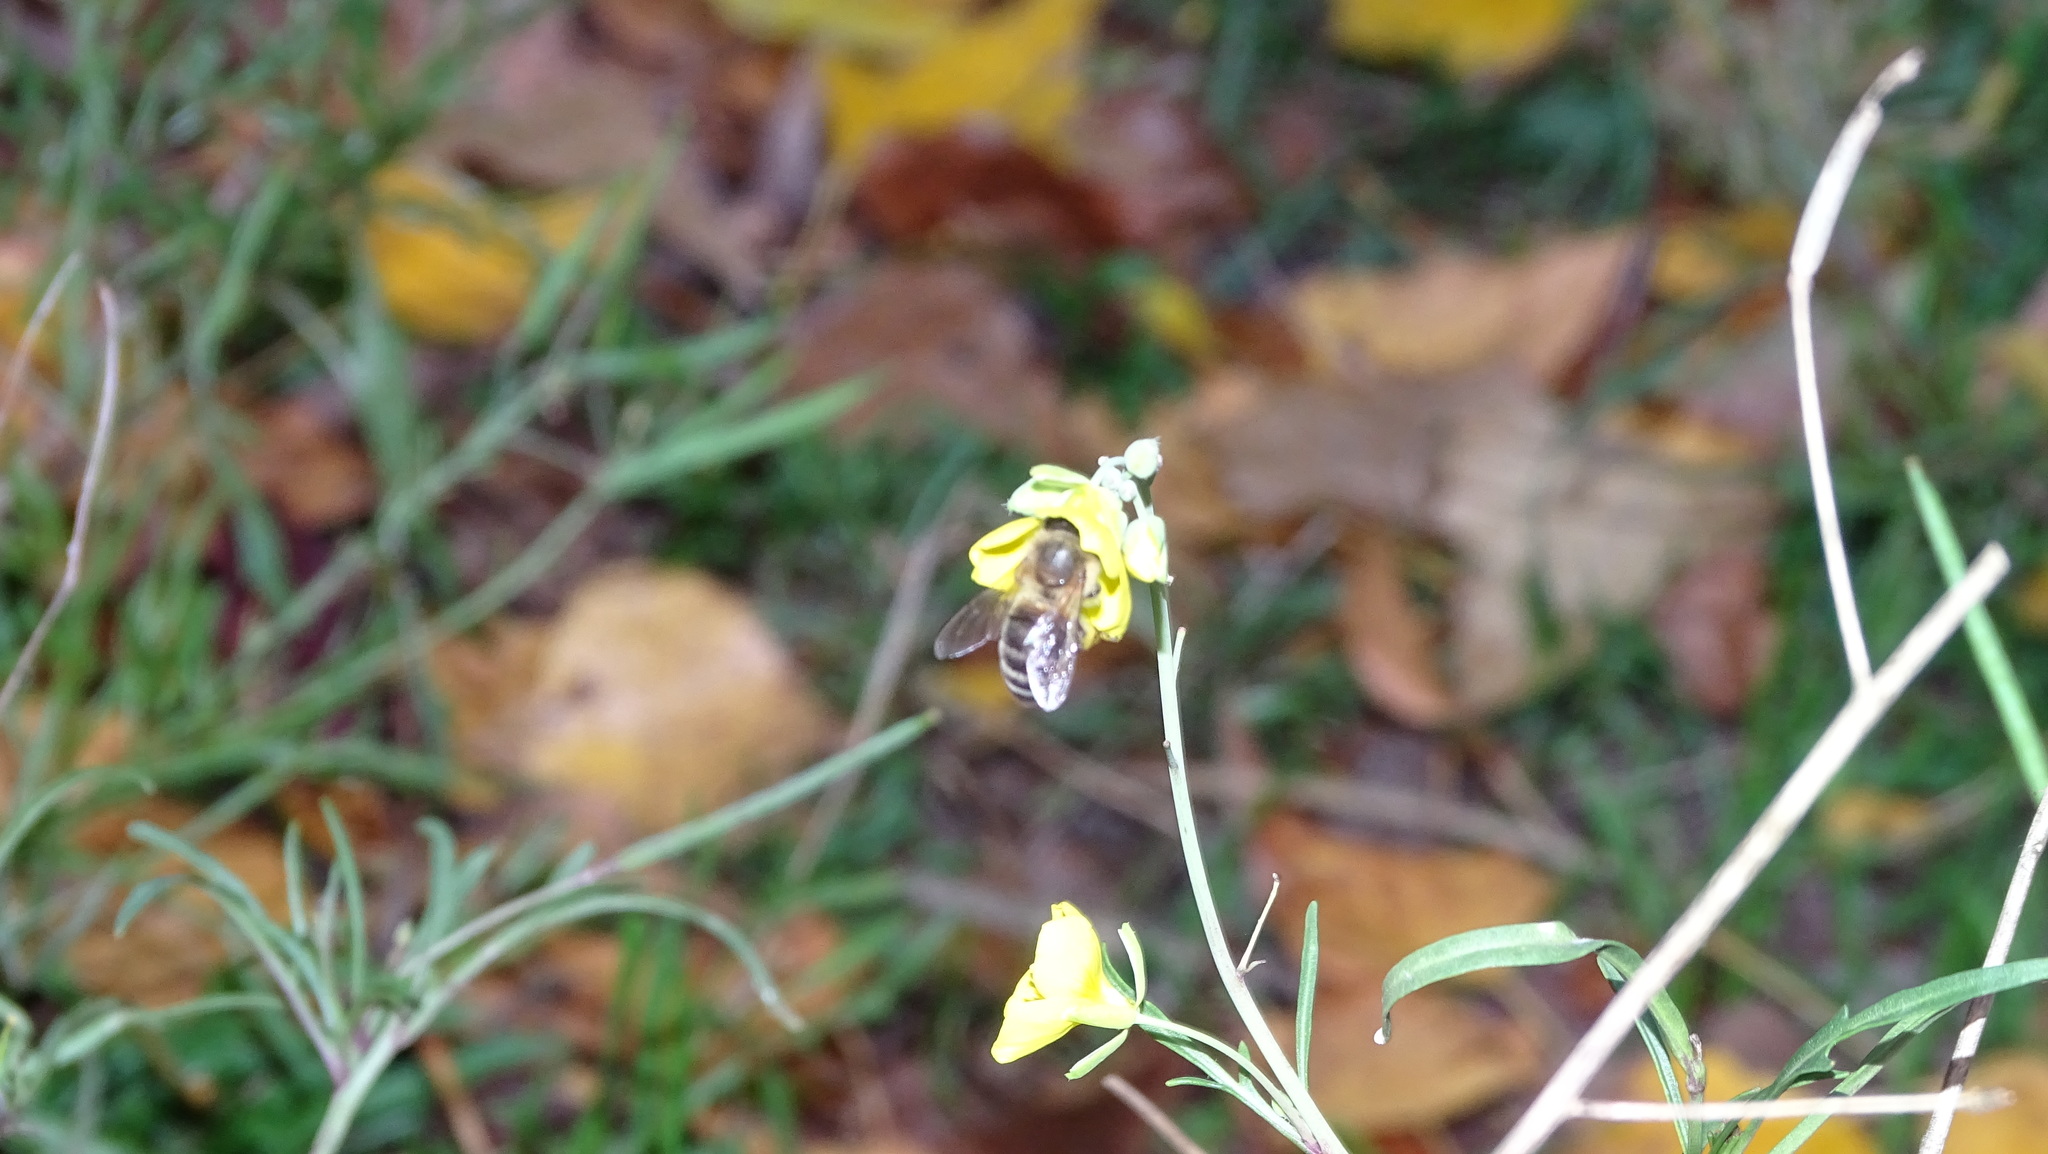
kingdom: Animalia
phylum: Arthropoda
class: Insecta
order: Hymenoptera
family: Apidae
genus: Apis
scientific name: Apis mellifera
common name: Honey bee
